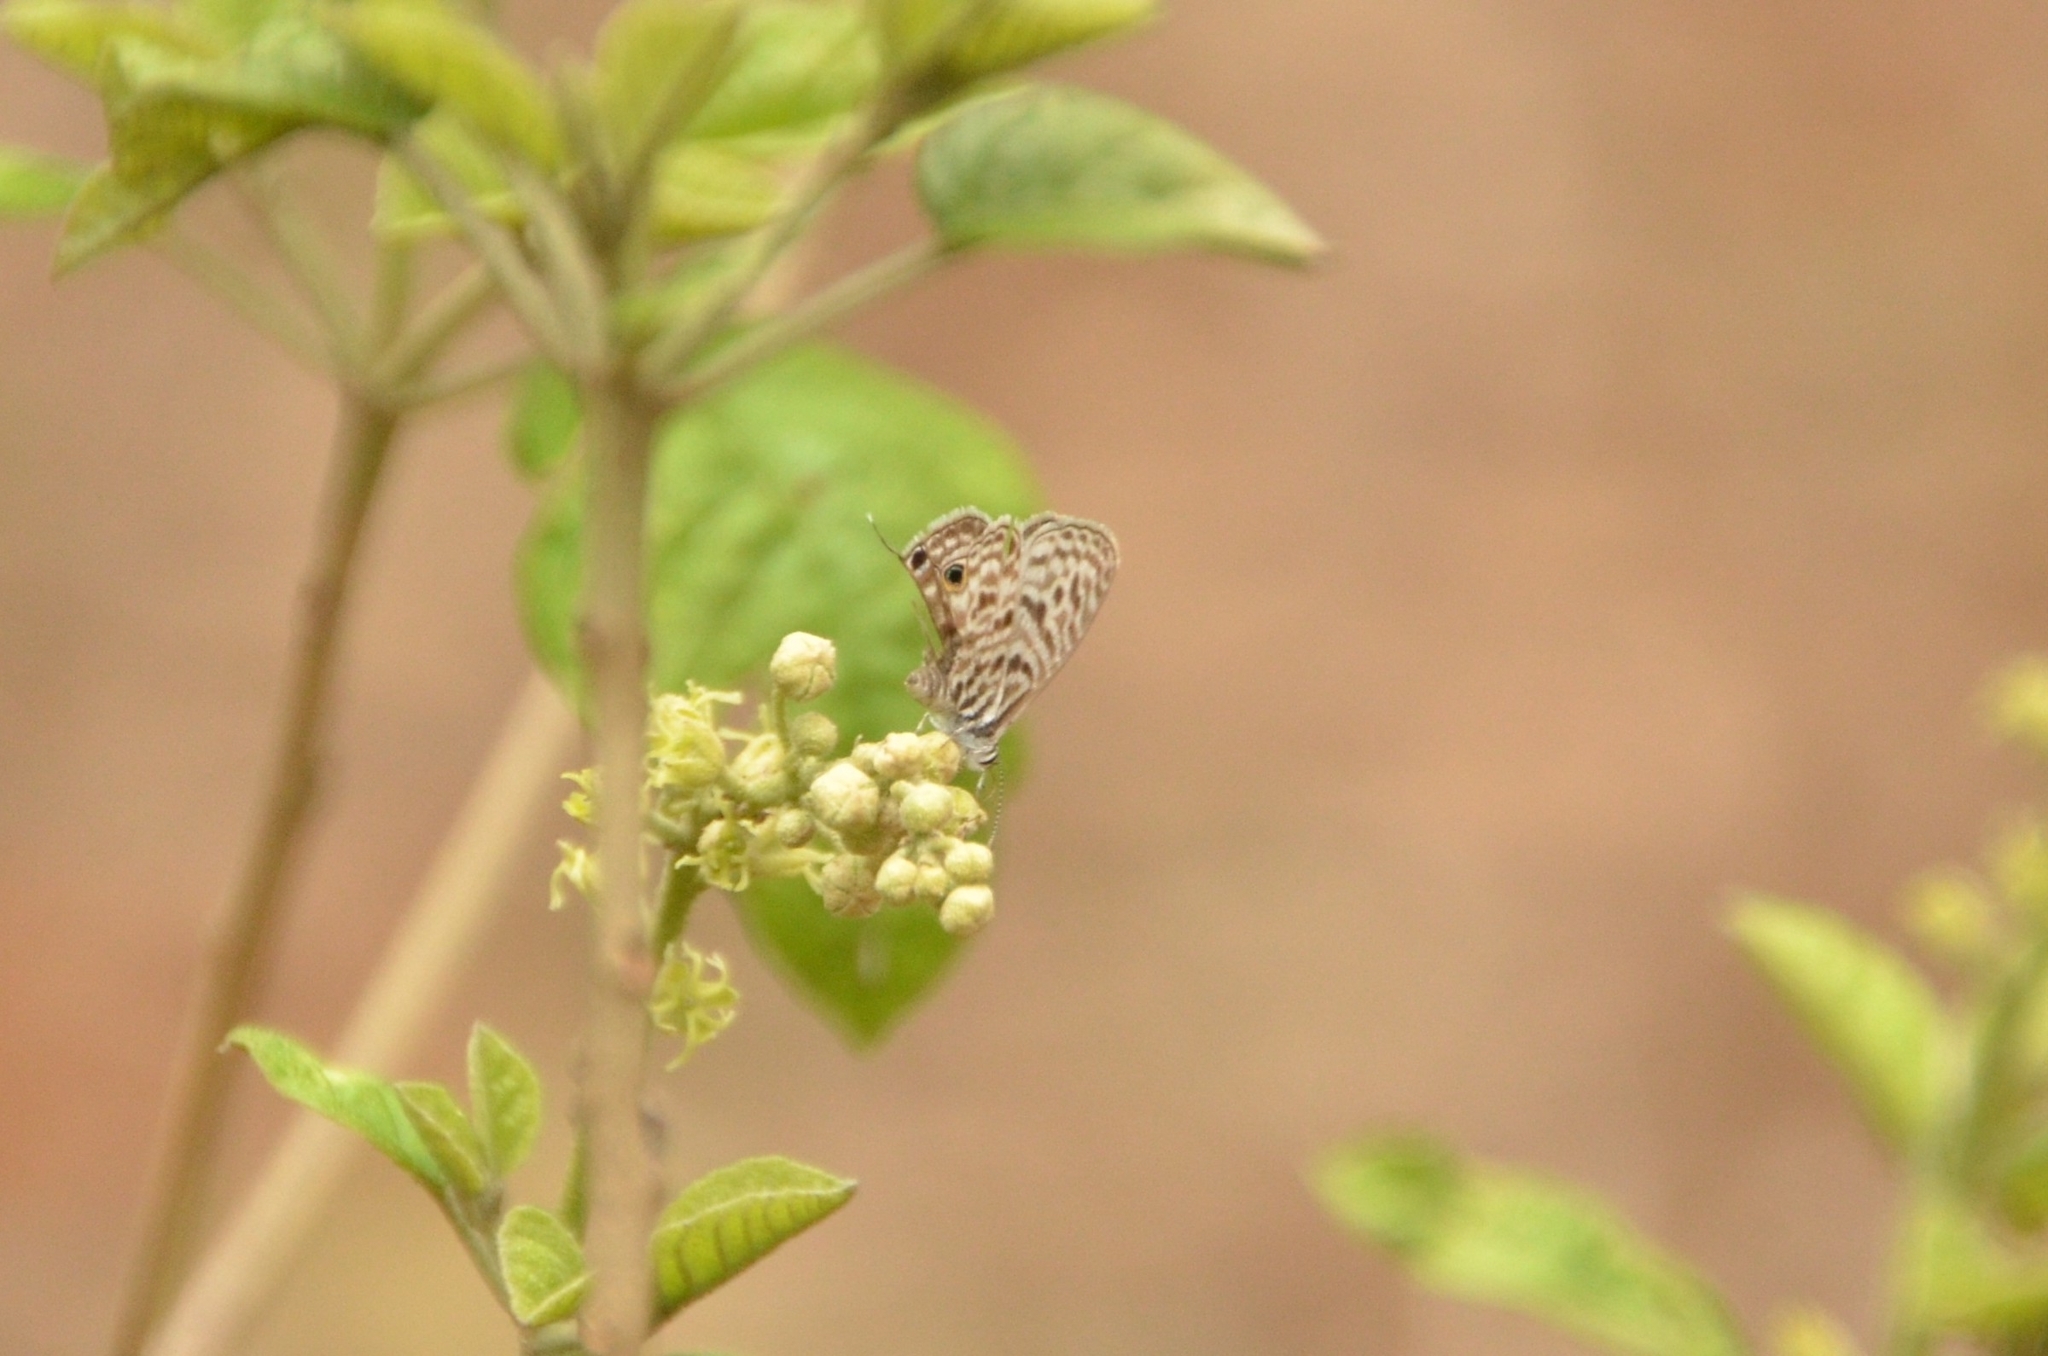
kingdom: Animalia
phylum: Arthropoda
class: Insecta
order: Lepidoptera
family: Lycaenidae
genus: Leptotes
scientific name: Leptotes
